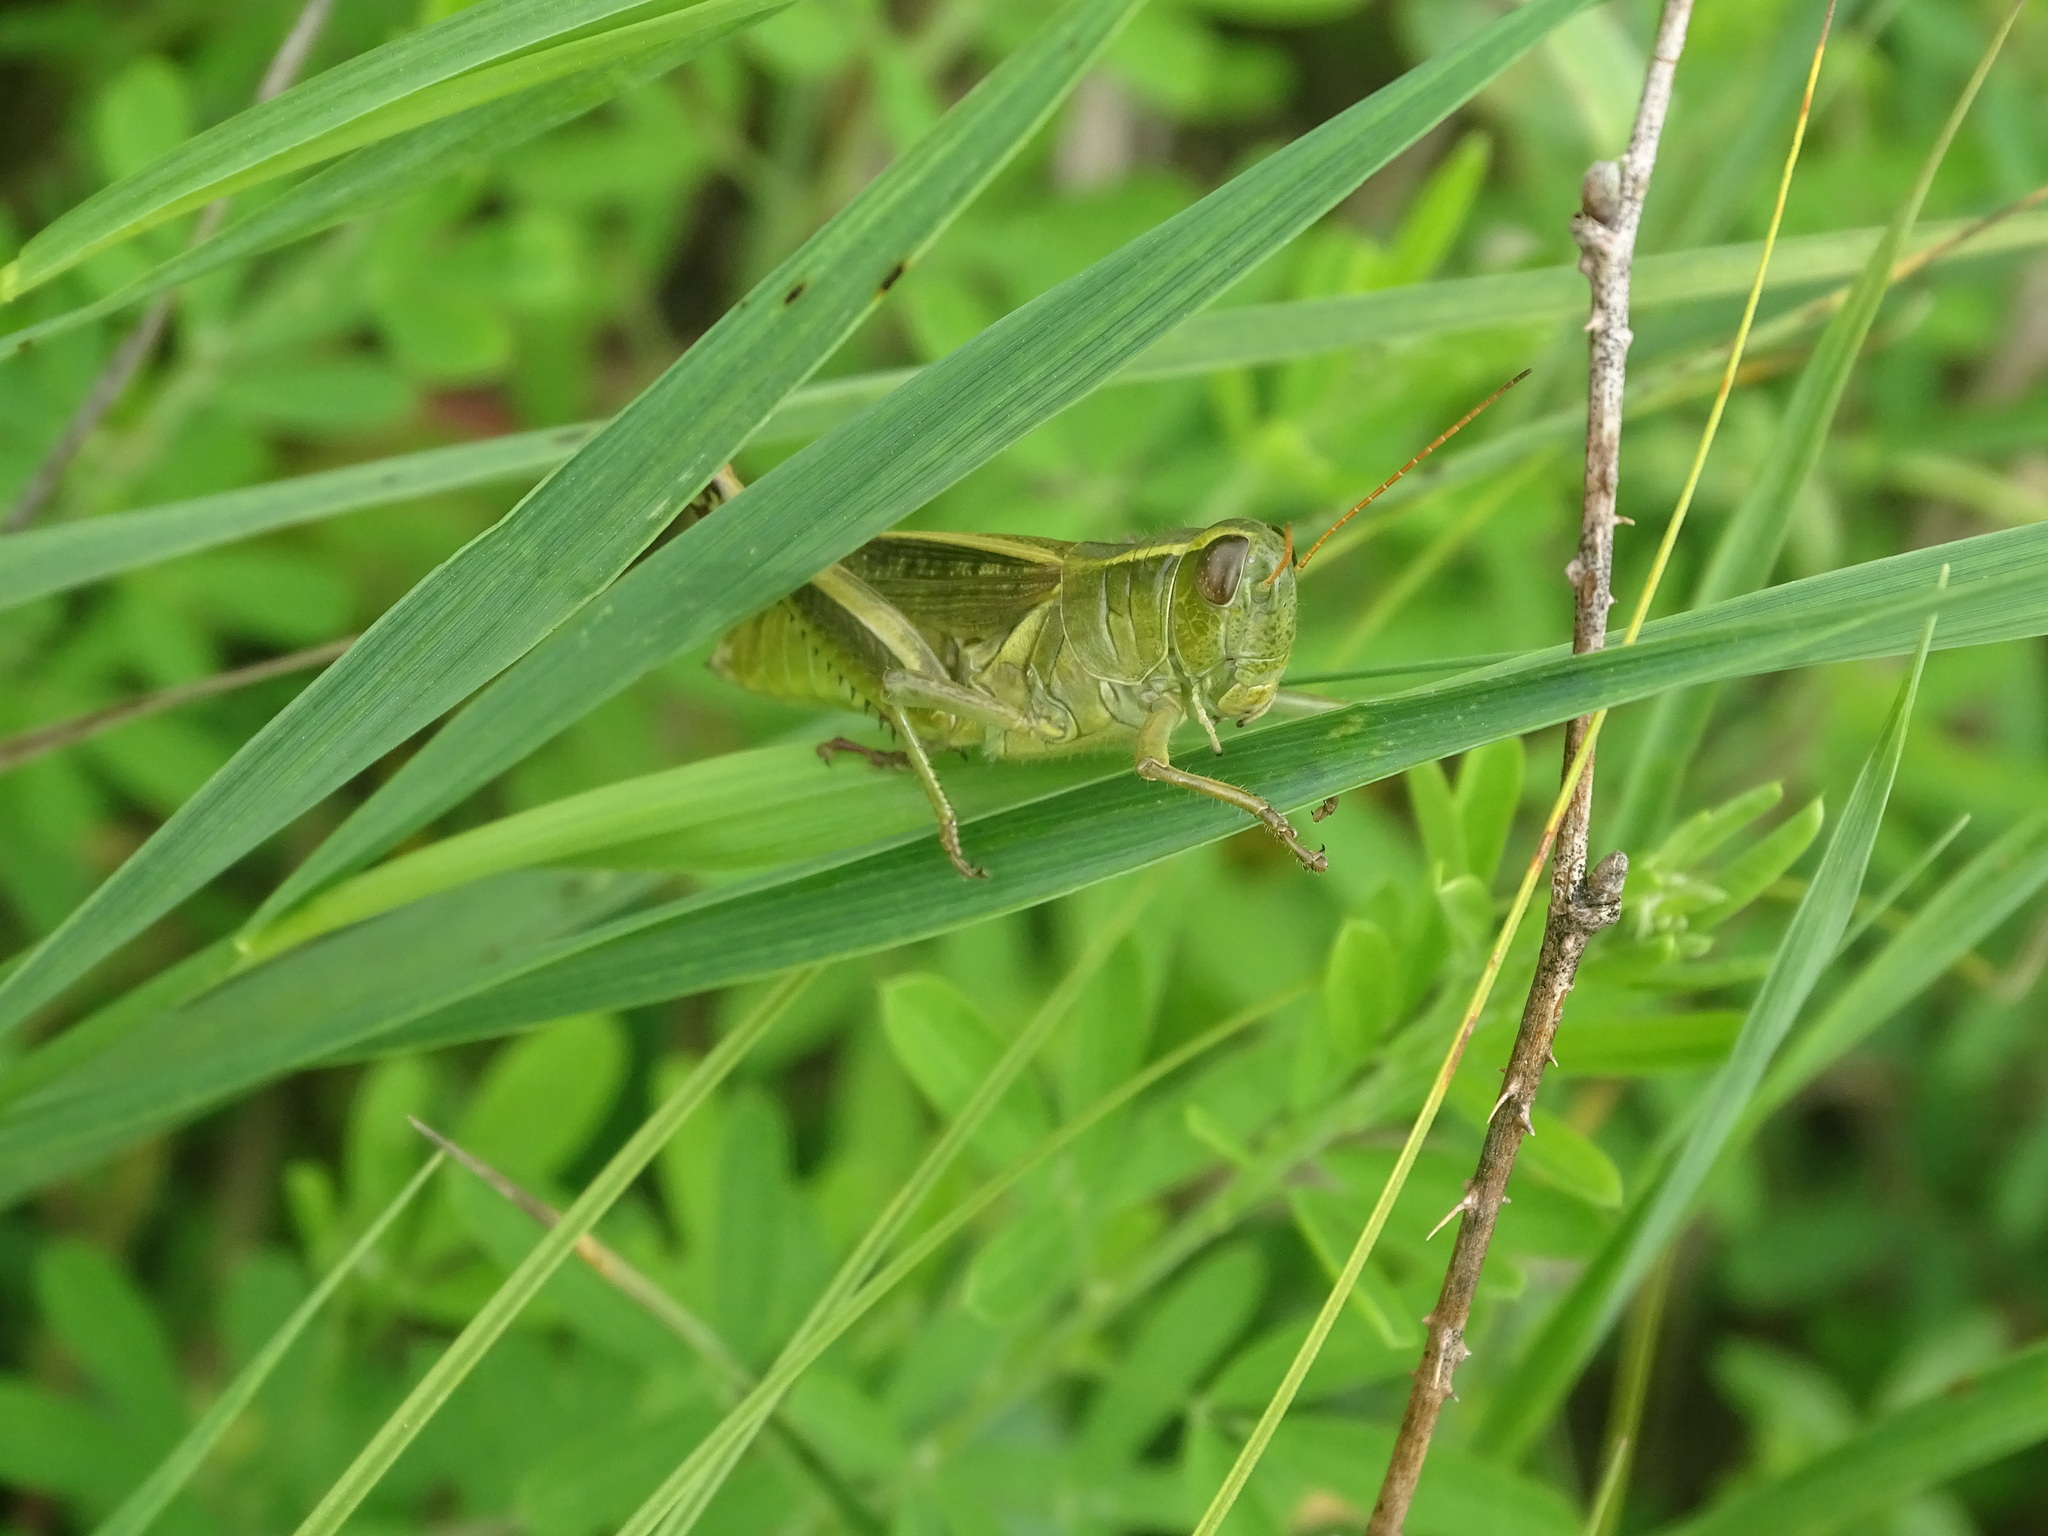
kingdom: Animalia
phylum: Arthropoda
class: Insecta
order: Orthoptera
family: Acrididae
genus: Melanoplus
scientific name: Melanoplus bivittatus
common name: Two-striped grasshopper
